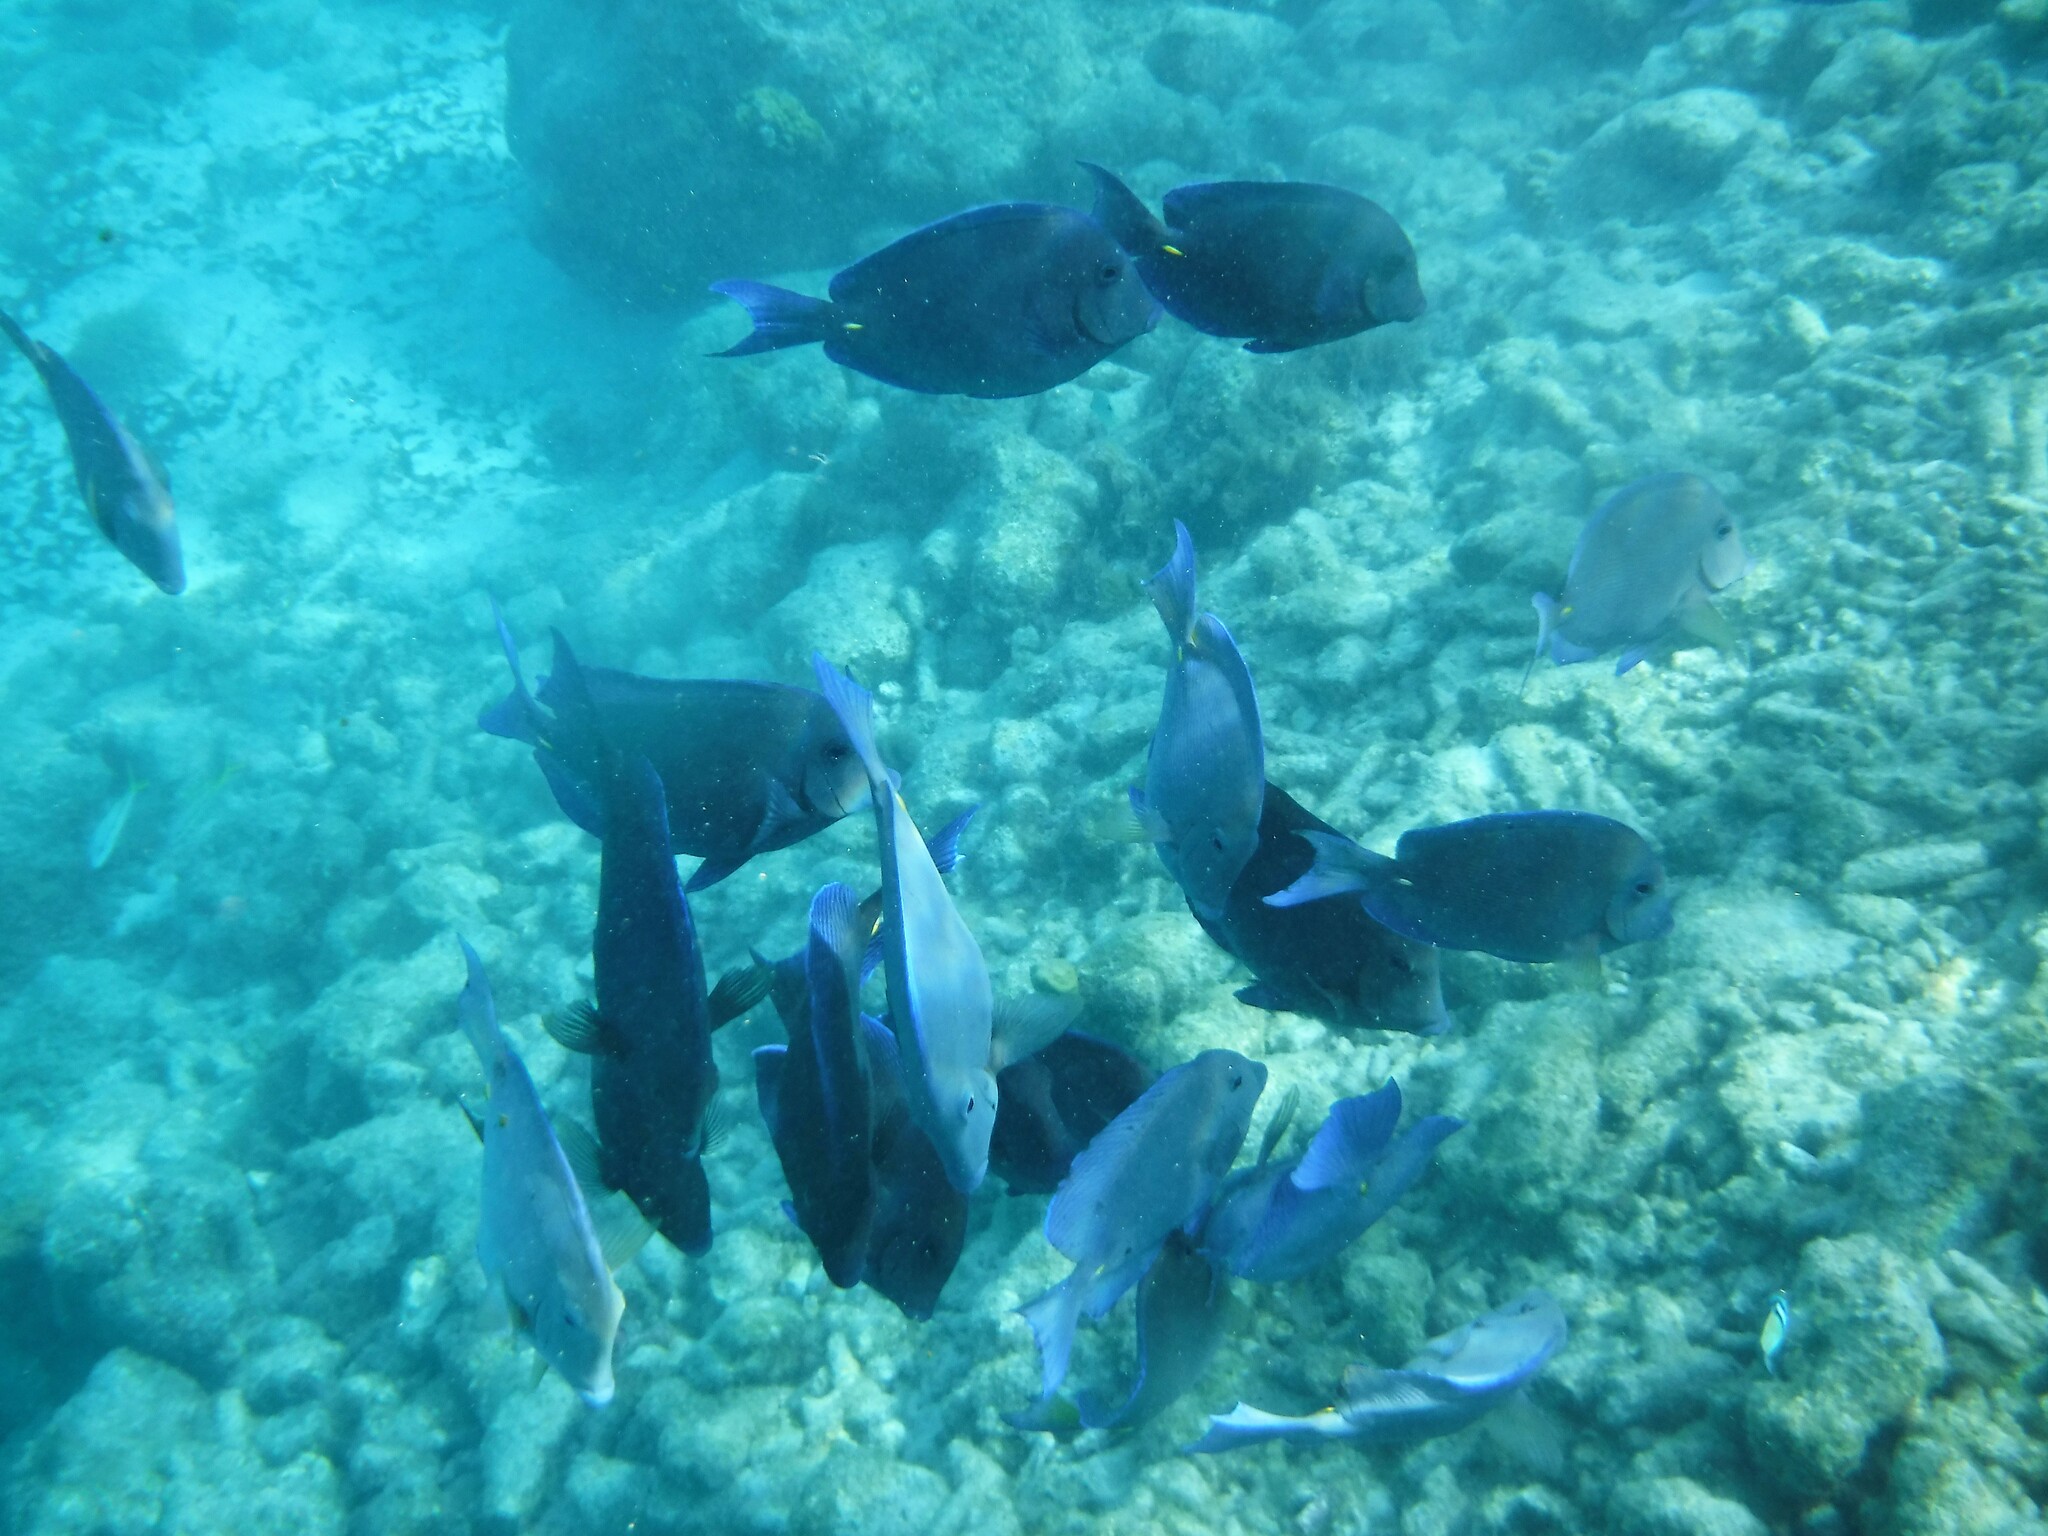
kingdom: Animalia
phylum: Chordata
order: Perciformes
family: Acanthuridae
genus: Acanthurus
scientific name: Acanthurus coeruleus
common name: Blue tang
